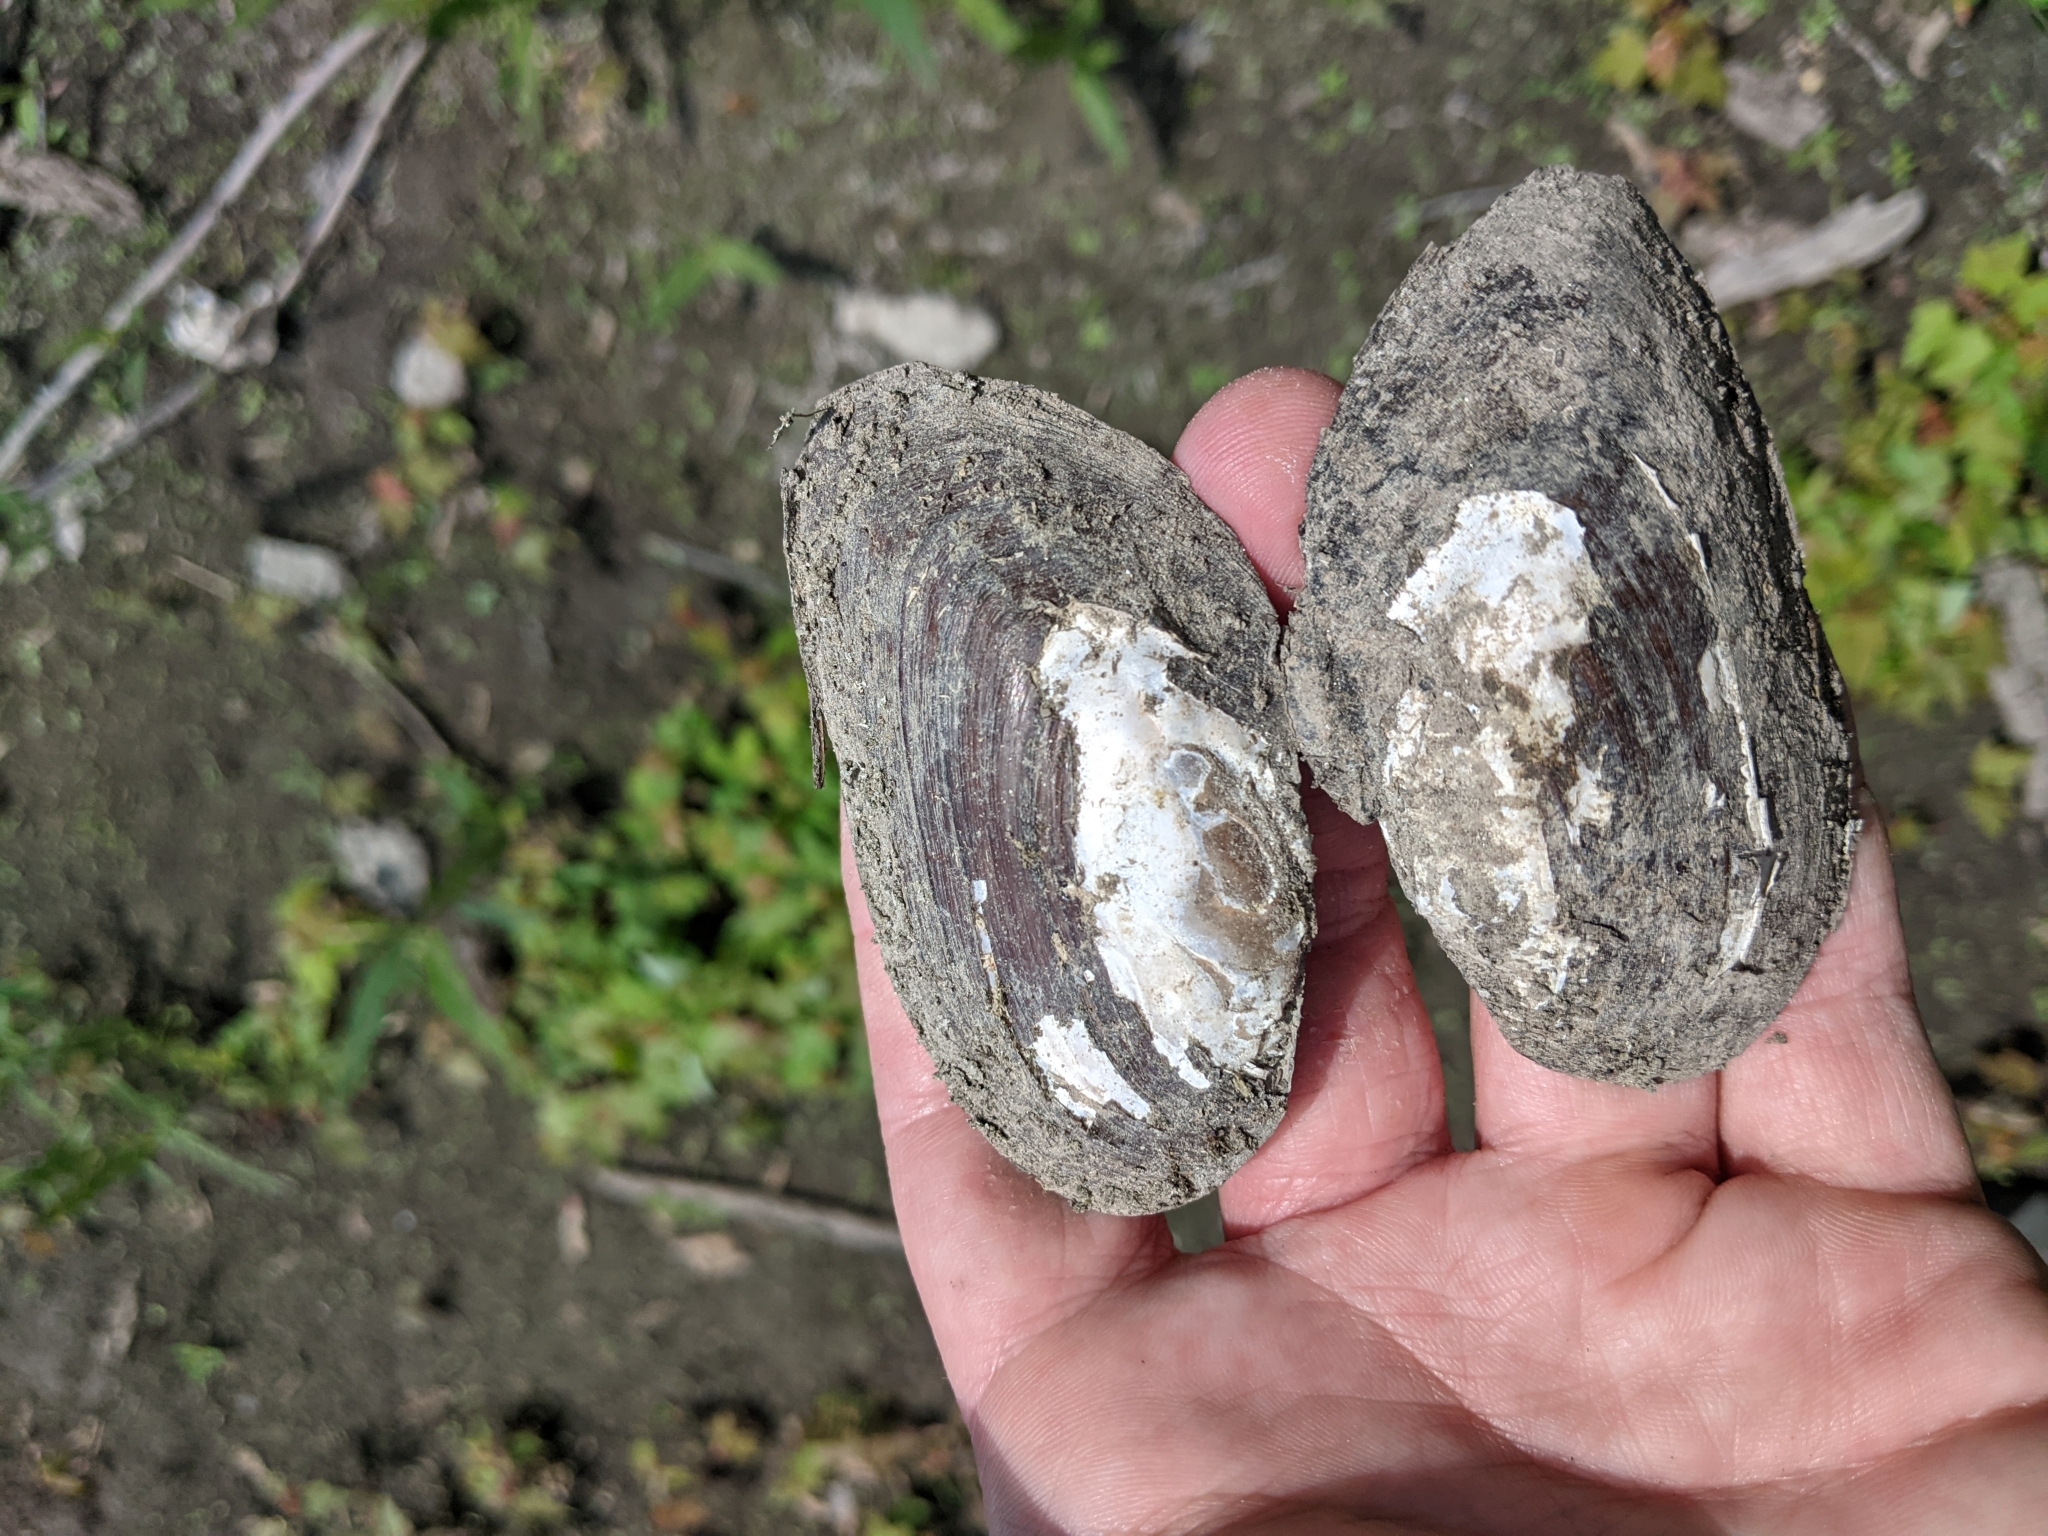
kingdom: Animalia
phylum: Mollusca
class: Bivalvia
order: Unionida
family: Unionidae
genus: Elliptio
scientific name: Elliptio complanata
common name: Eastern elliptio
